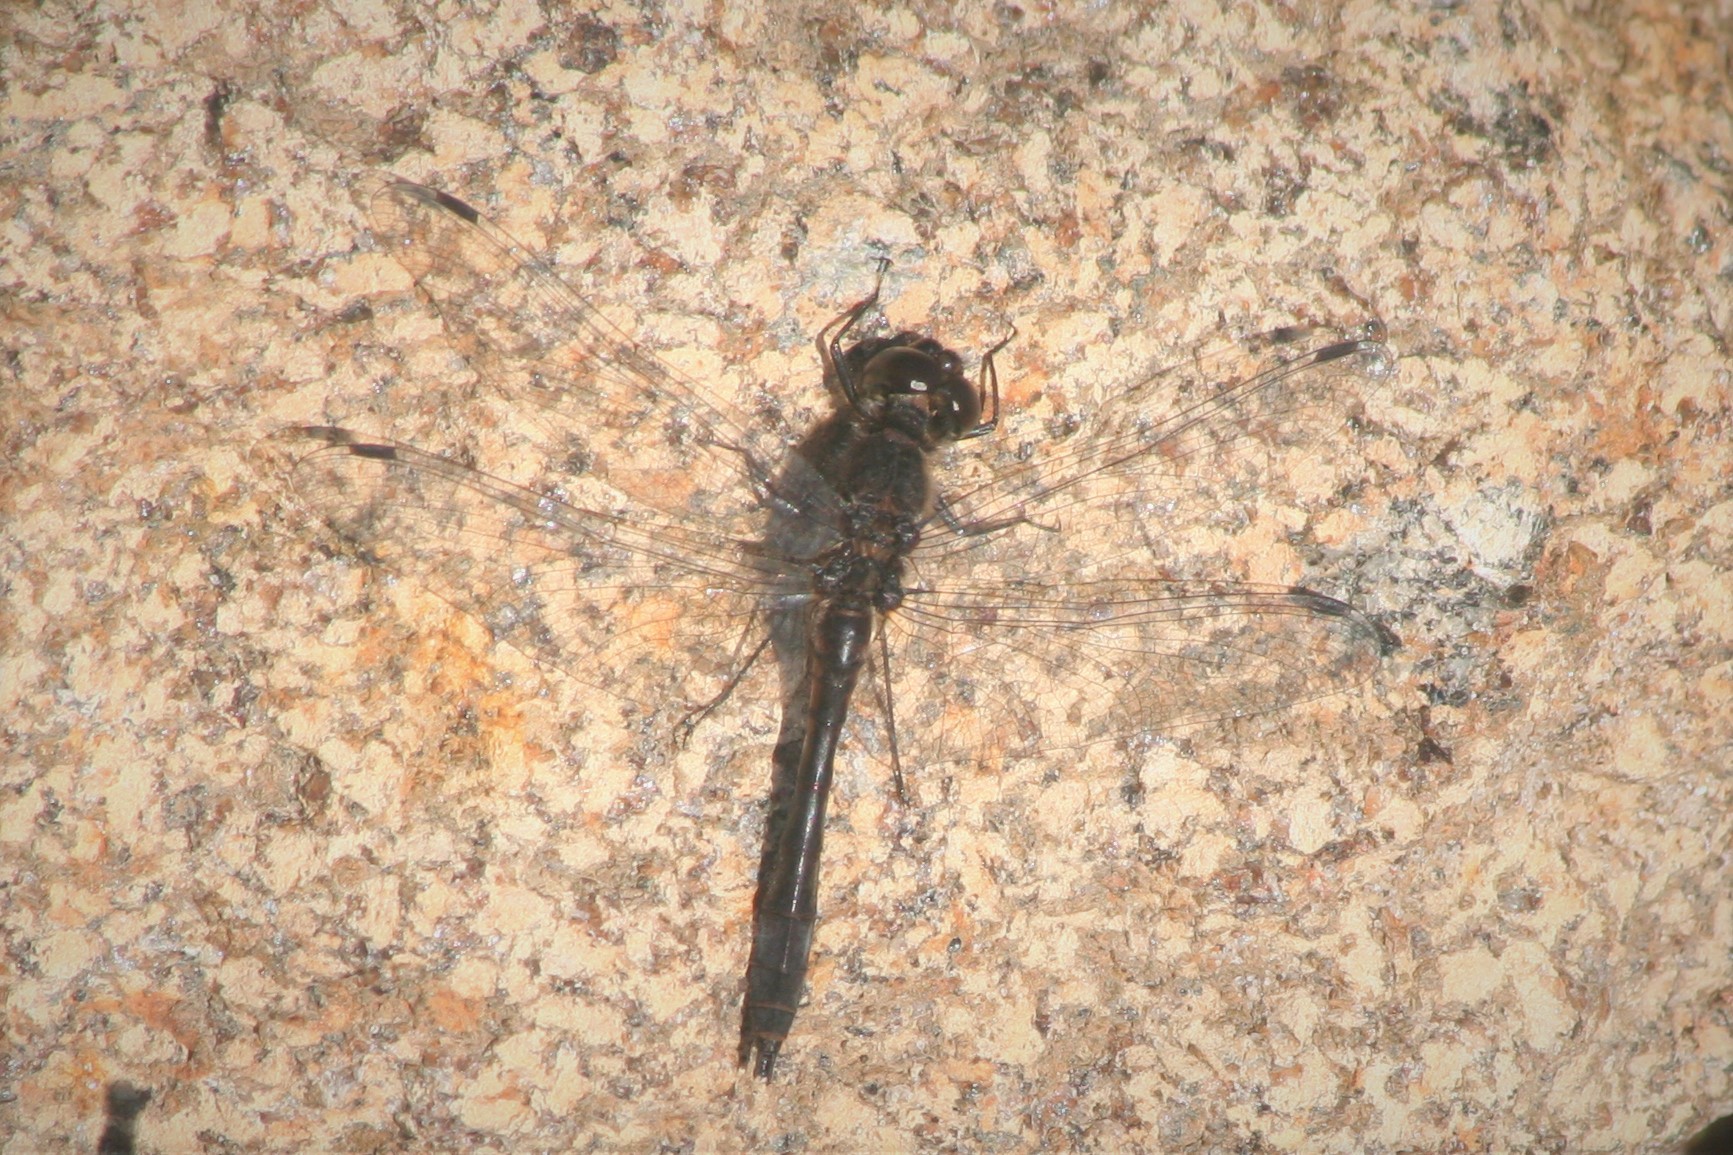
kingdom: Animalia
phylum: Arthropoda
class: Insecta
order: Odonata
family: Libellulidae
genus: Sympetrum
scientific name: Sympetrum danae
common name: Black darter
